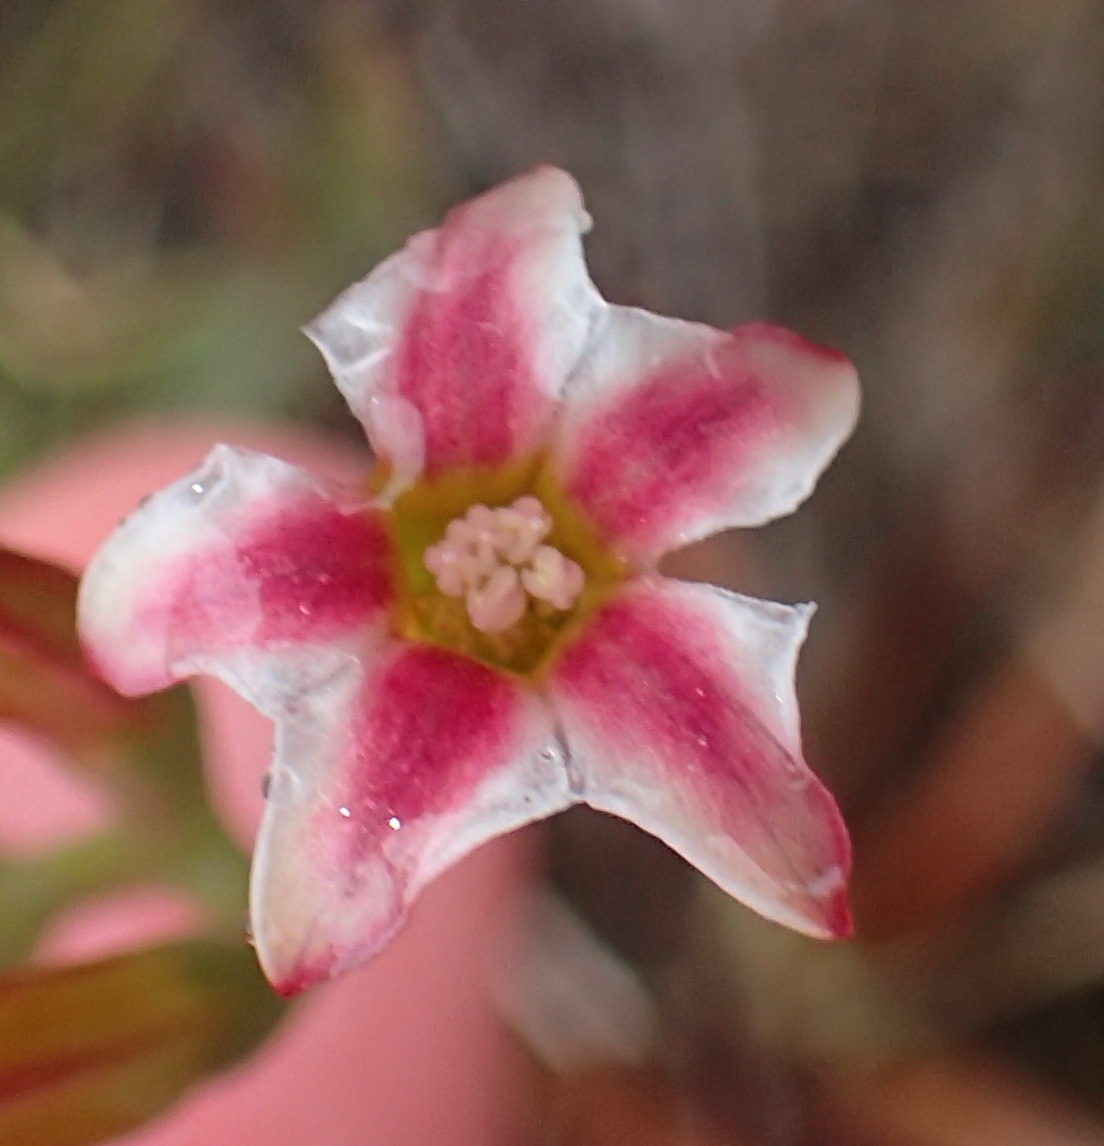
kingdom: Plantae
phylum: Tracheophyta
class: Magnoliopsida
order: Saxifragales
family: Crassulaceae
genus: Adromischus
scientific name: Adromischus caryophyllaceus
